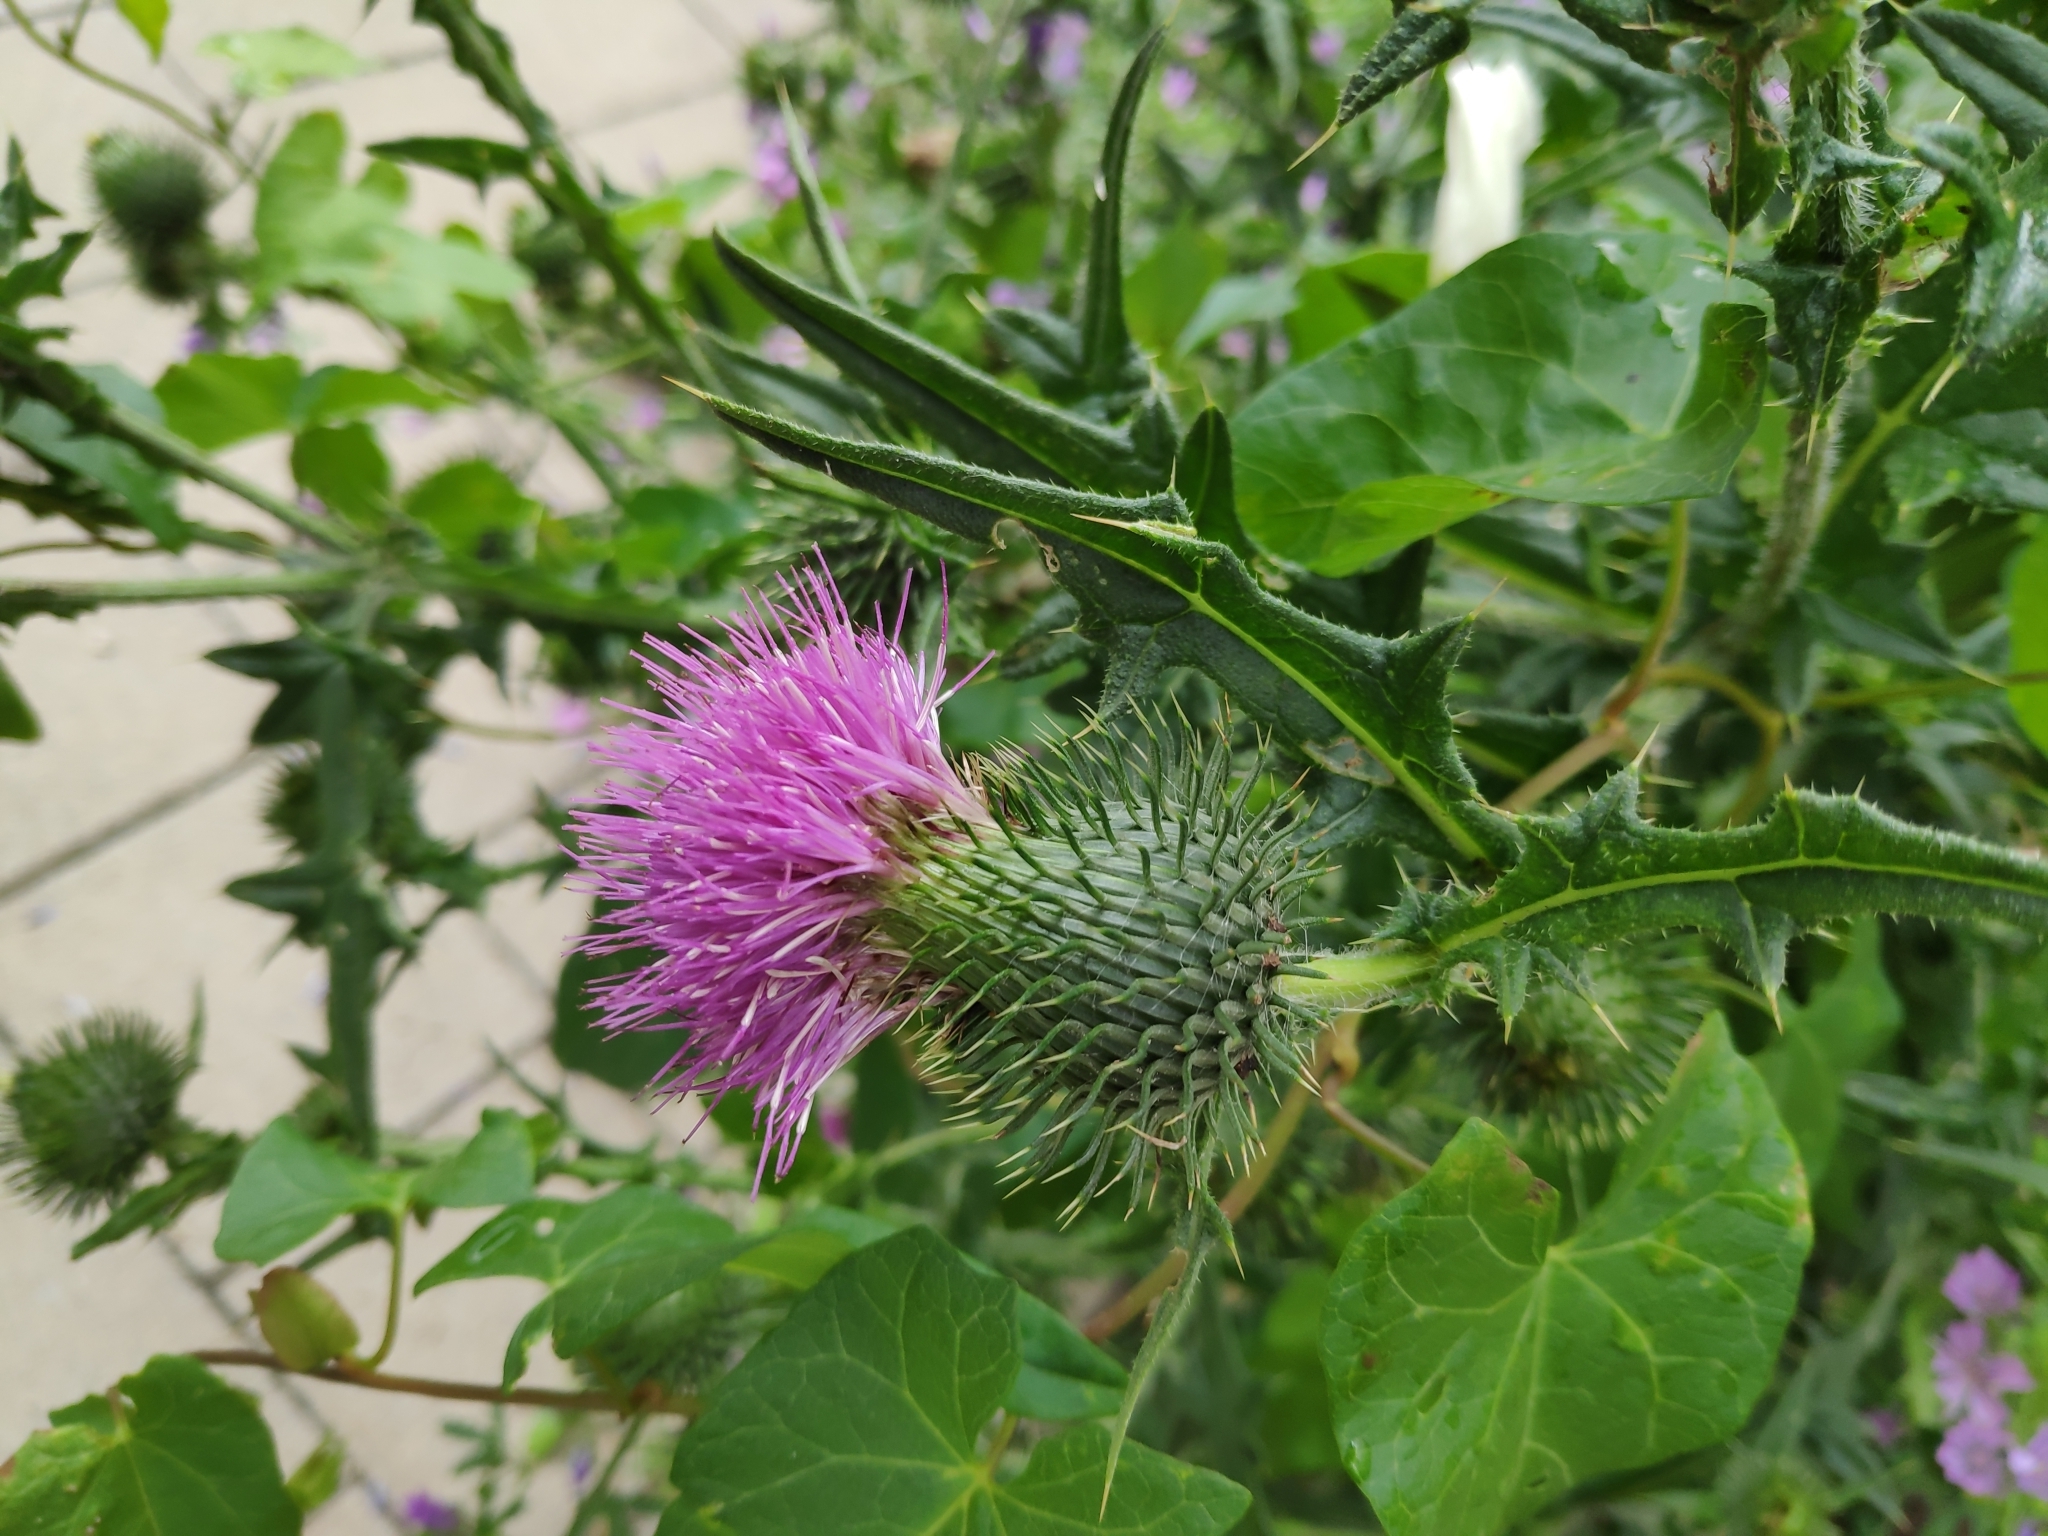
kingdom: Plantae
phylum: Tracheophyta
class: Magnoliopsida
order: Asterales
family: Asteraceae
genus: Cirsium
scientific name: Cirsium vulgare
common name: Bull thistle
